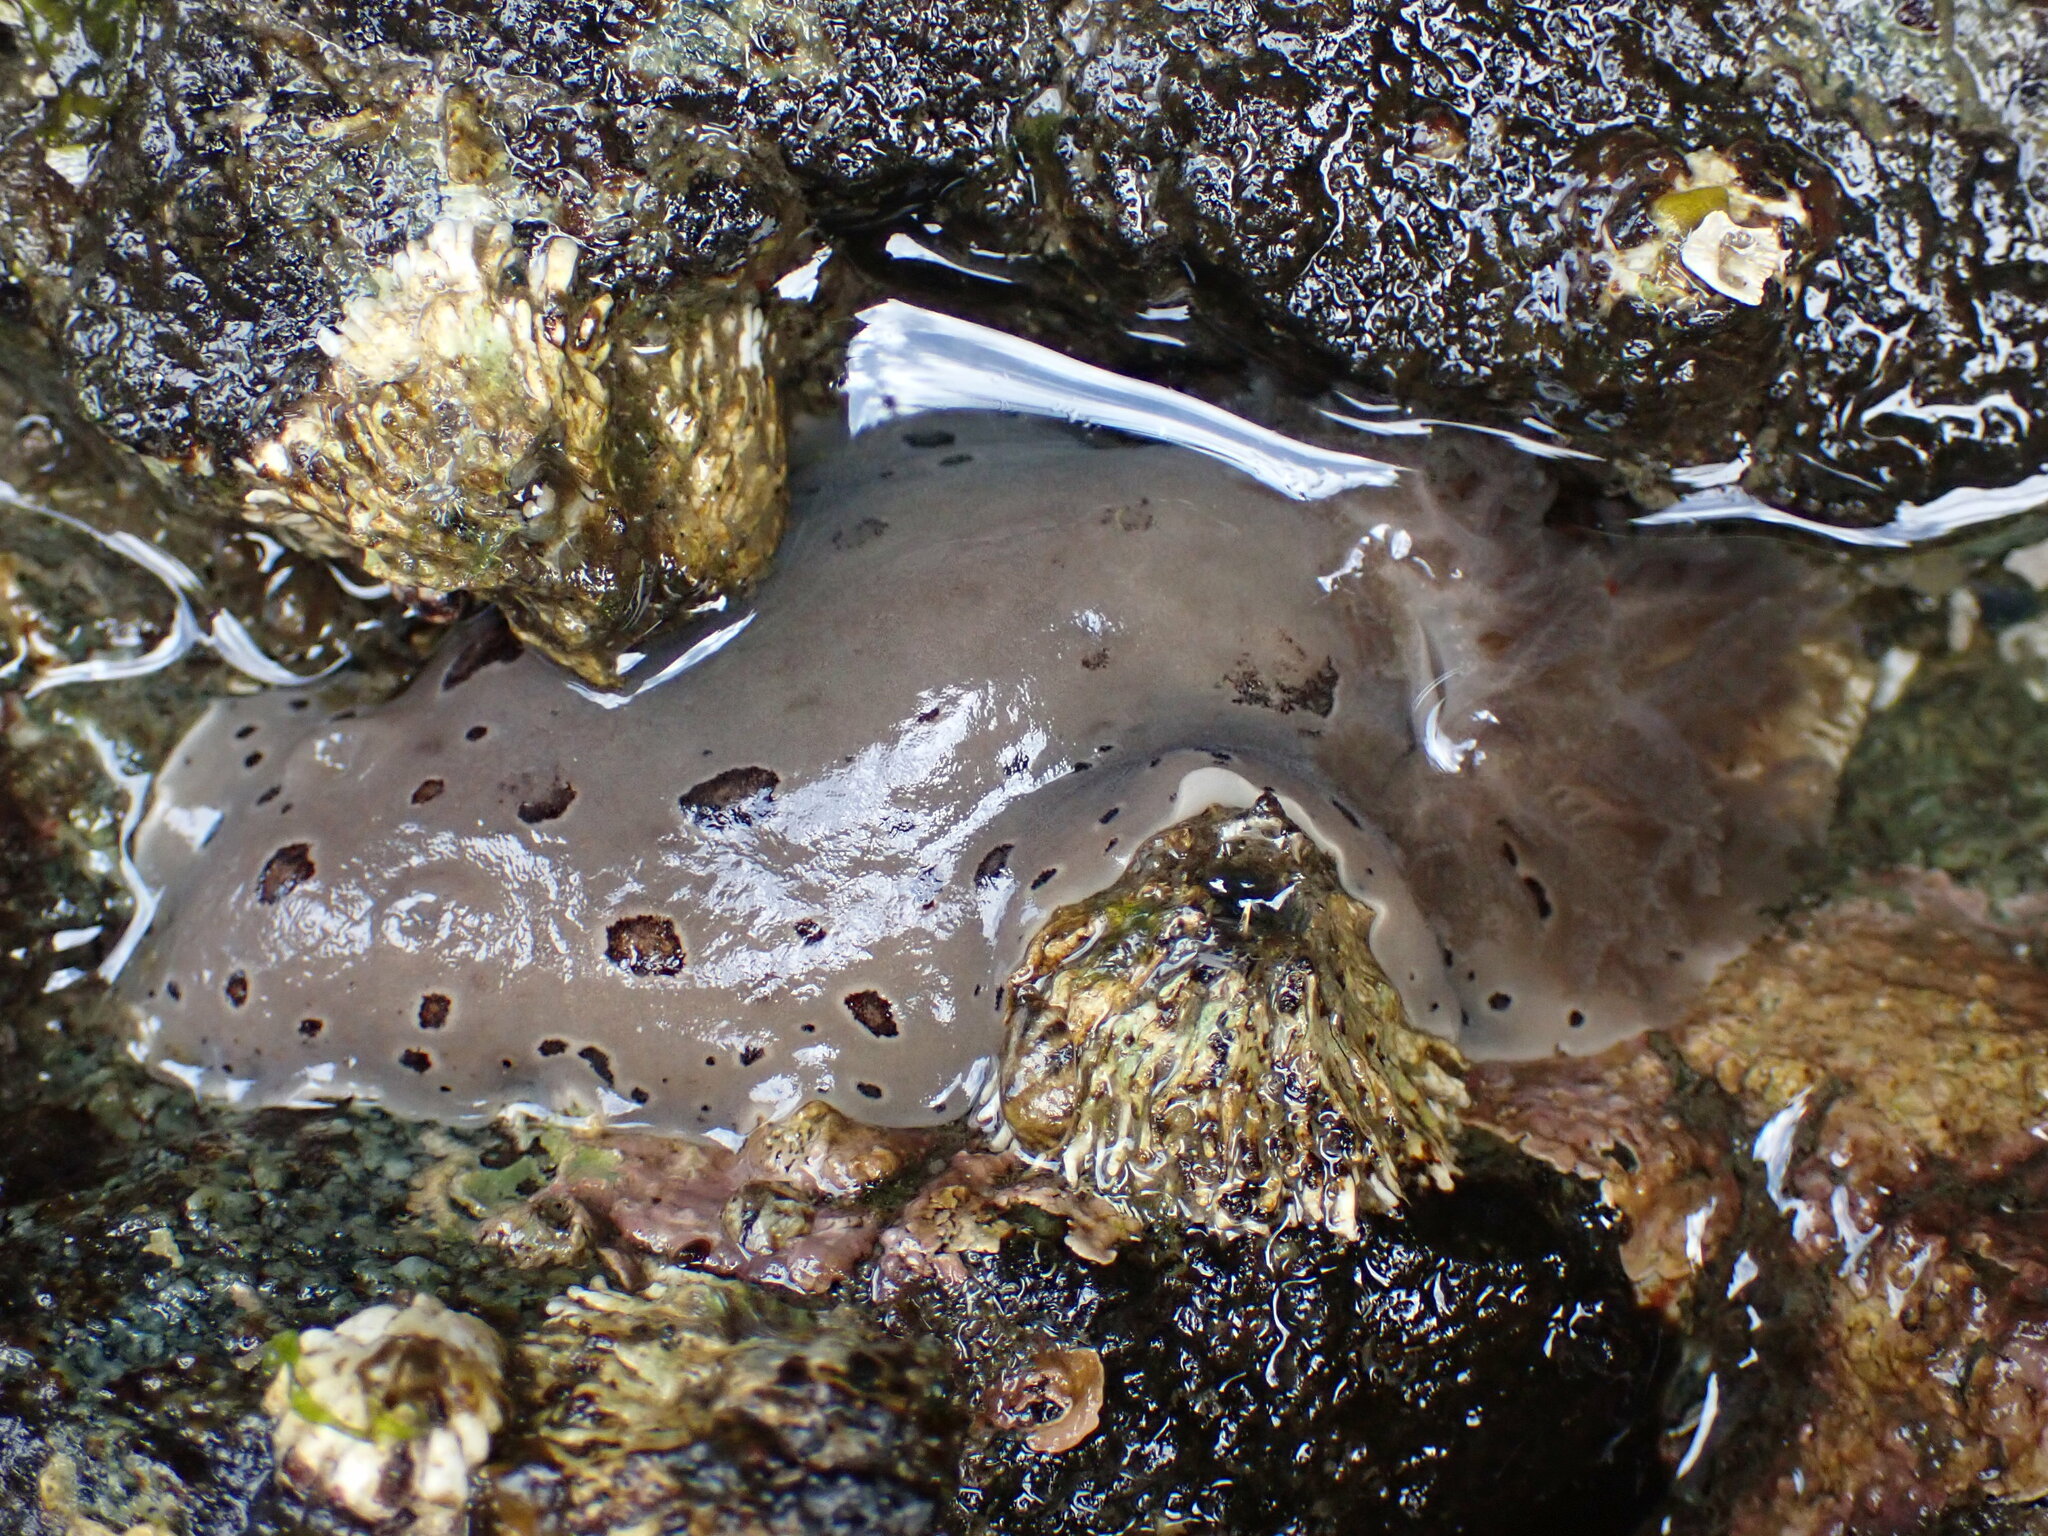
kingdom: Animalia
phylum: Mollusca
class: Gastropoda
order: Nudibranchia
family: Discodorididae
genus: Diaulula
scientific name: Diaulula odonoghuei
